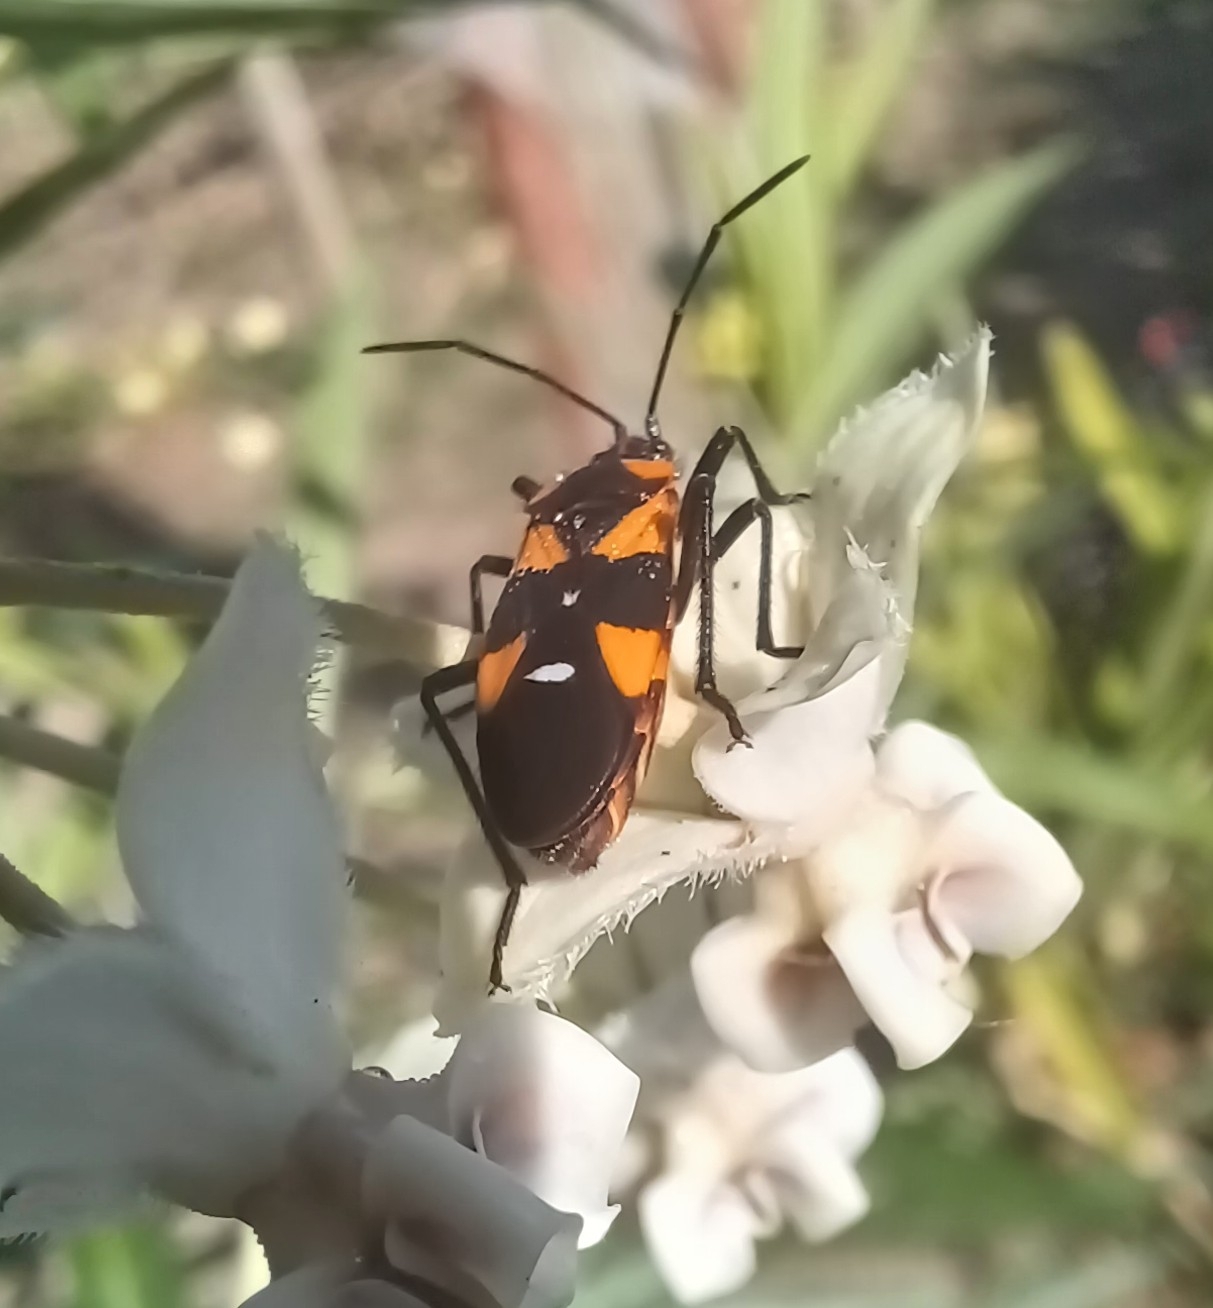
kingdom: Animalia
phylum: Arthropoda
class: Insecta
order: Hemiptera
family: Lygaeidae
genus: Oncopeltus
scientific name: Oncopeltus famelicus
